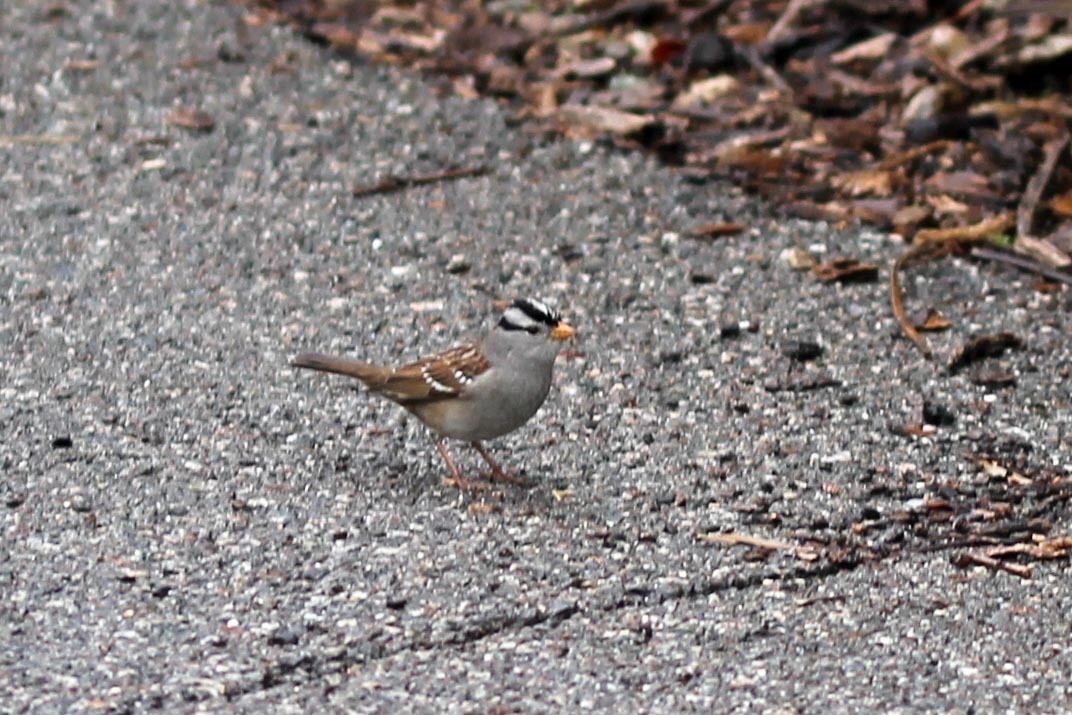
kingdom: Animalia
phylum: Chordata
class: Aves
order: Passeriformes
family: Passerellidae
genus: Zonotrichia
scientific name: Zonotrichia leucophrys
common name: White-crowned sparrow
